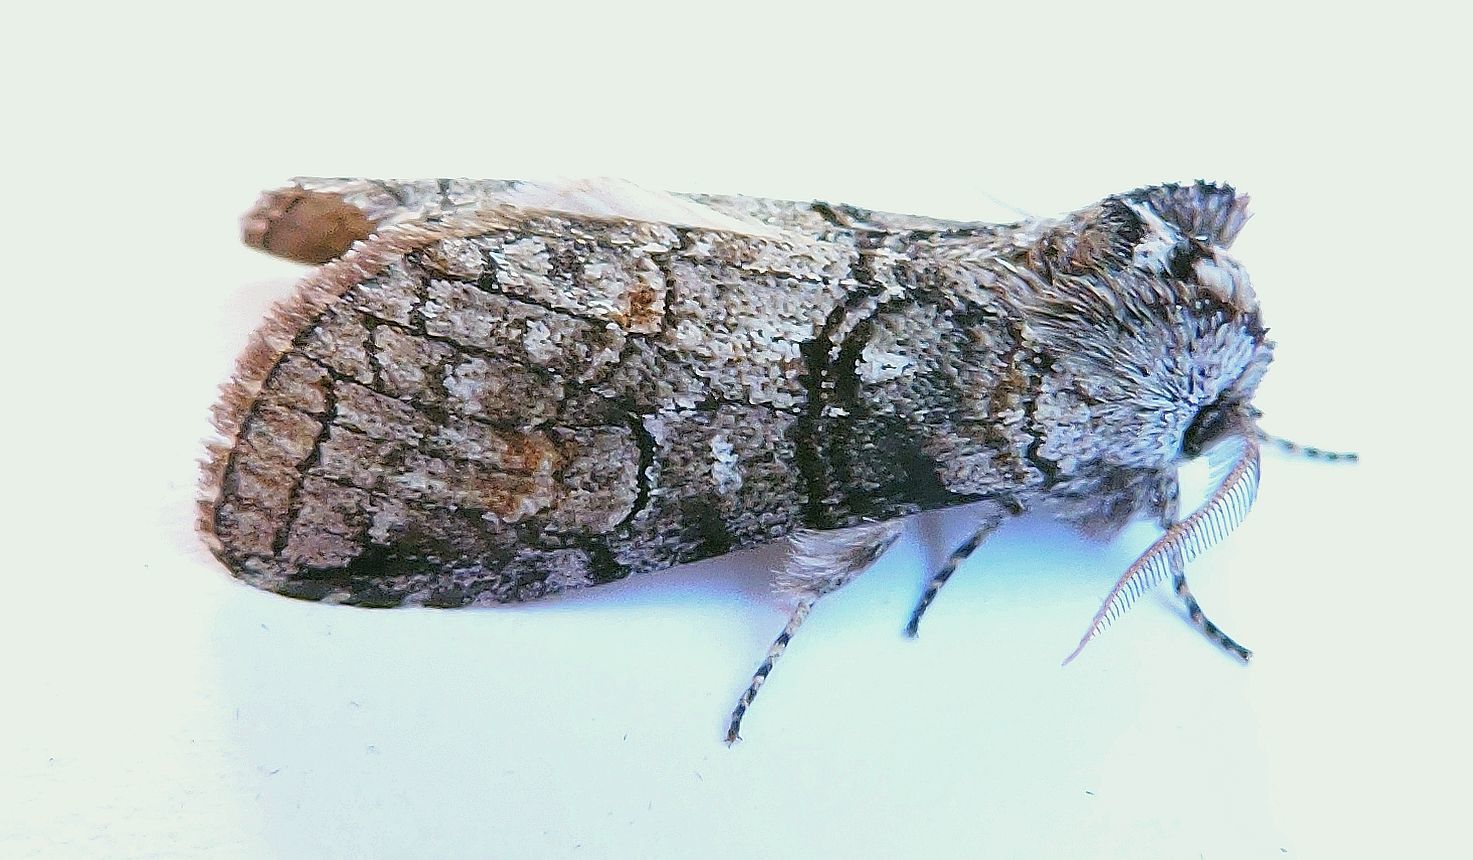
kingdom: Animalia
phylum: Arthropoda
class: Insecta
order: Lepidoptera
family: Notodontidae
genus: Afilia
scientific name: Afilia oslari
